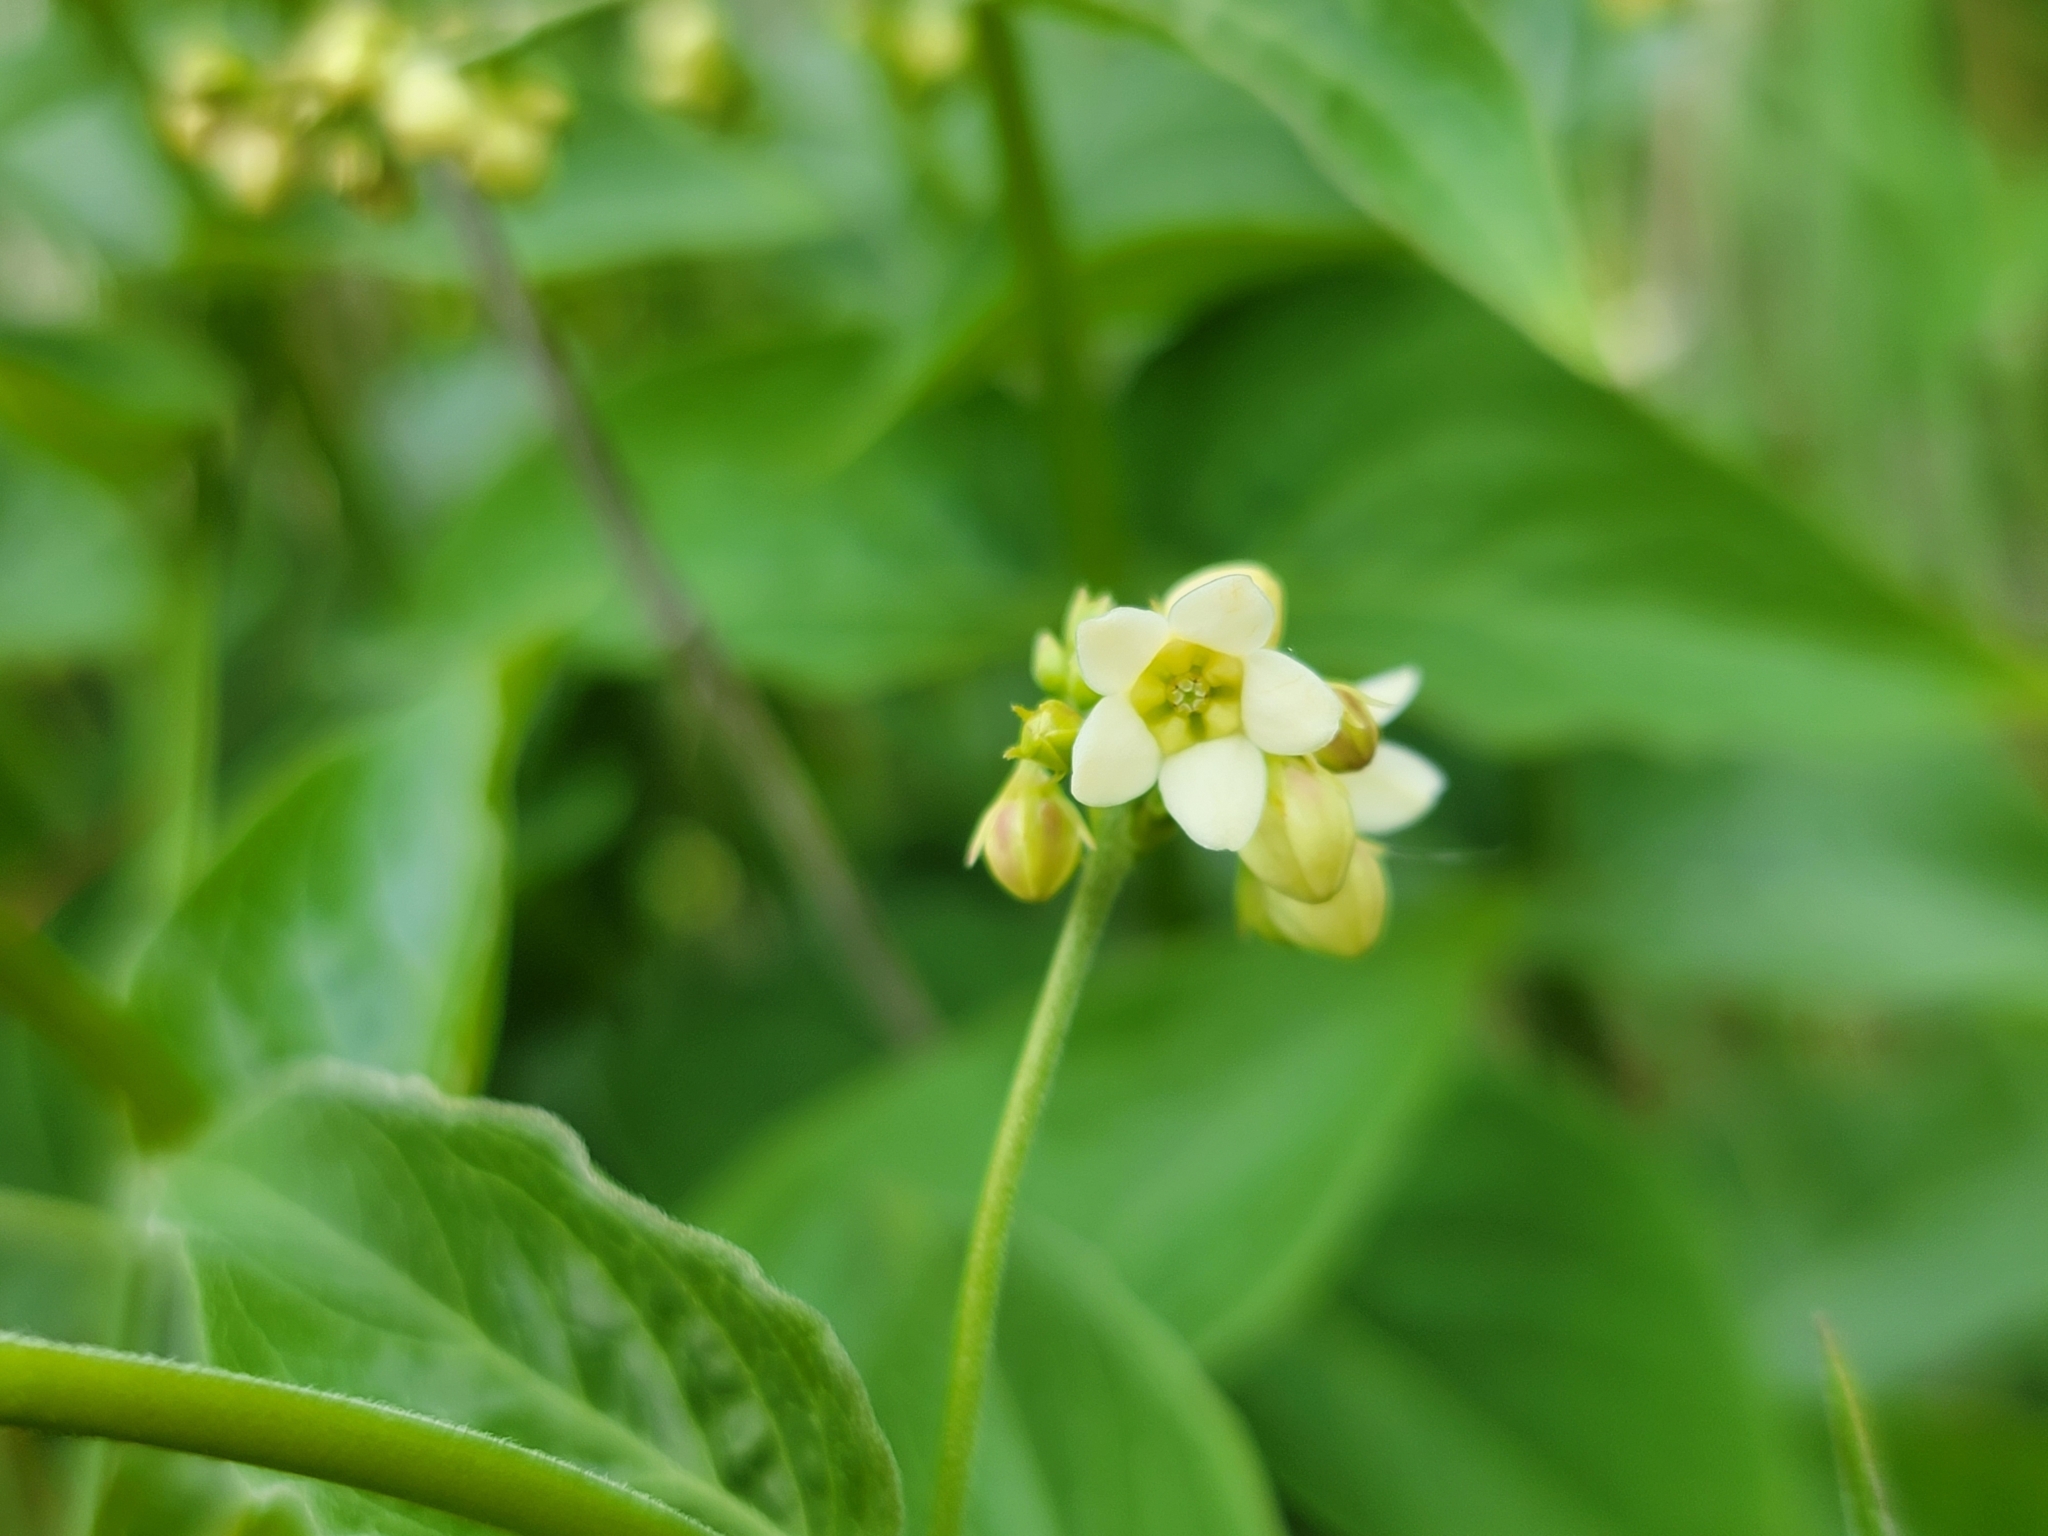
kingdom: Plantae
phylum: Tracheophyta
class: Magnoliopsida
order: Gentianales
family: Apocynaceae
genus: Vincetoxicum
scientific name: Vincetoxicum hirundinaria
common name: White swallowwort
